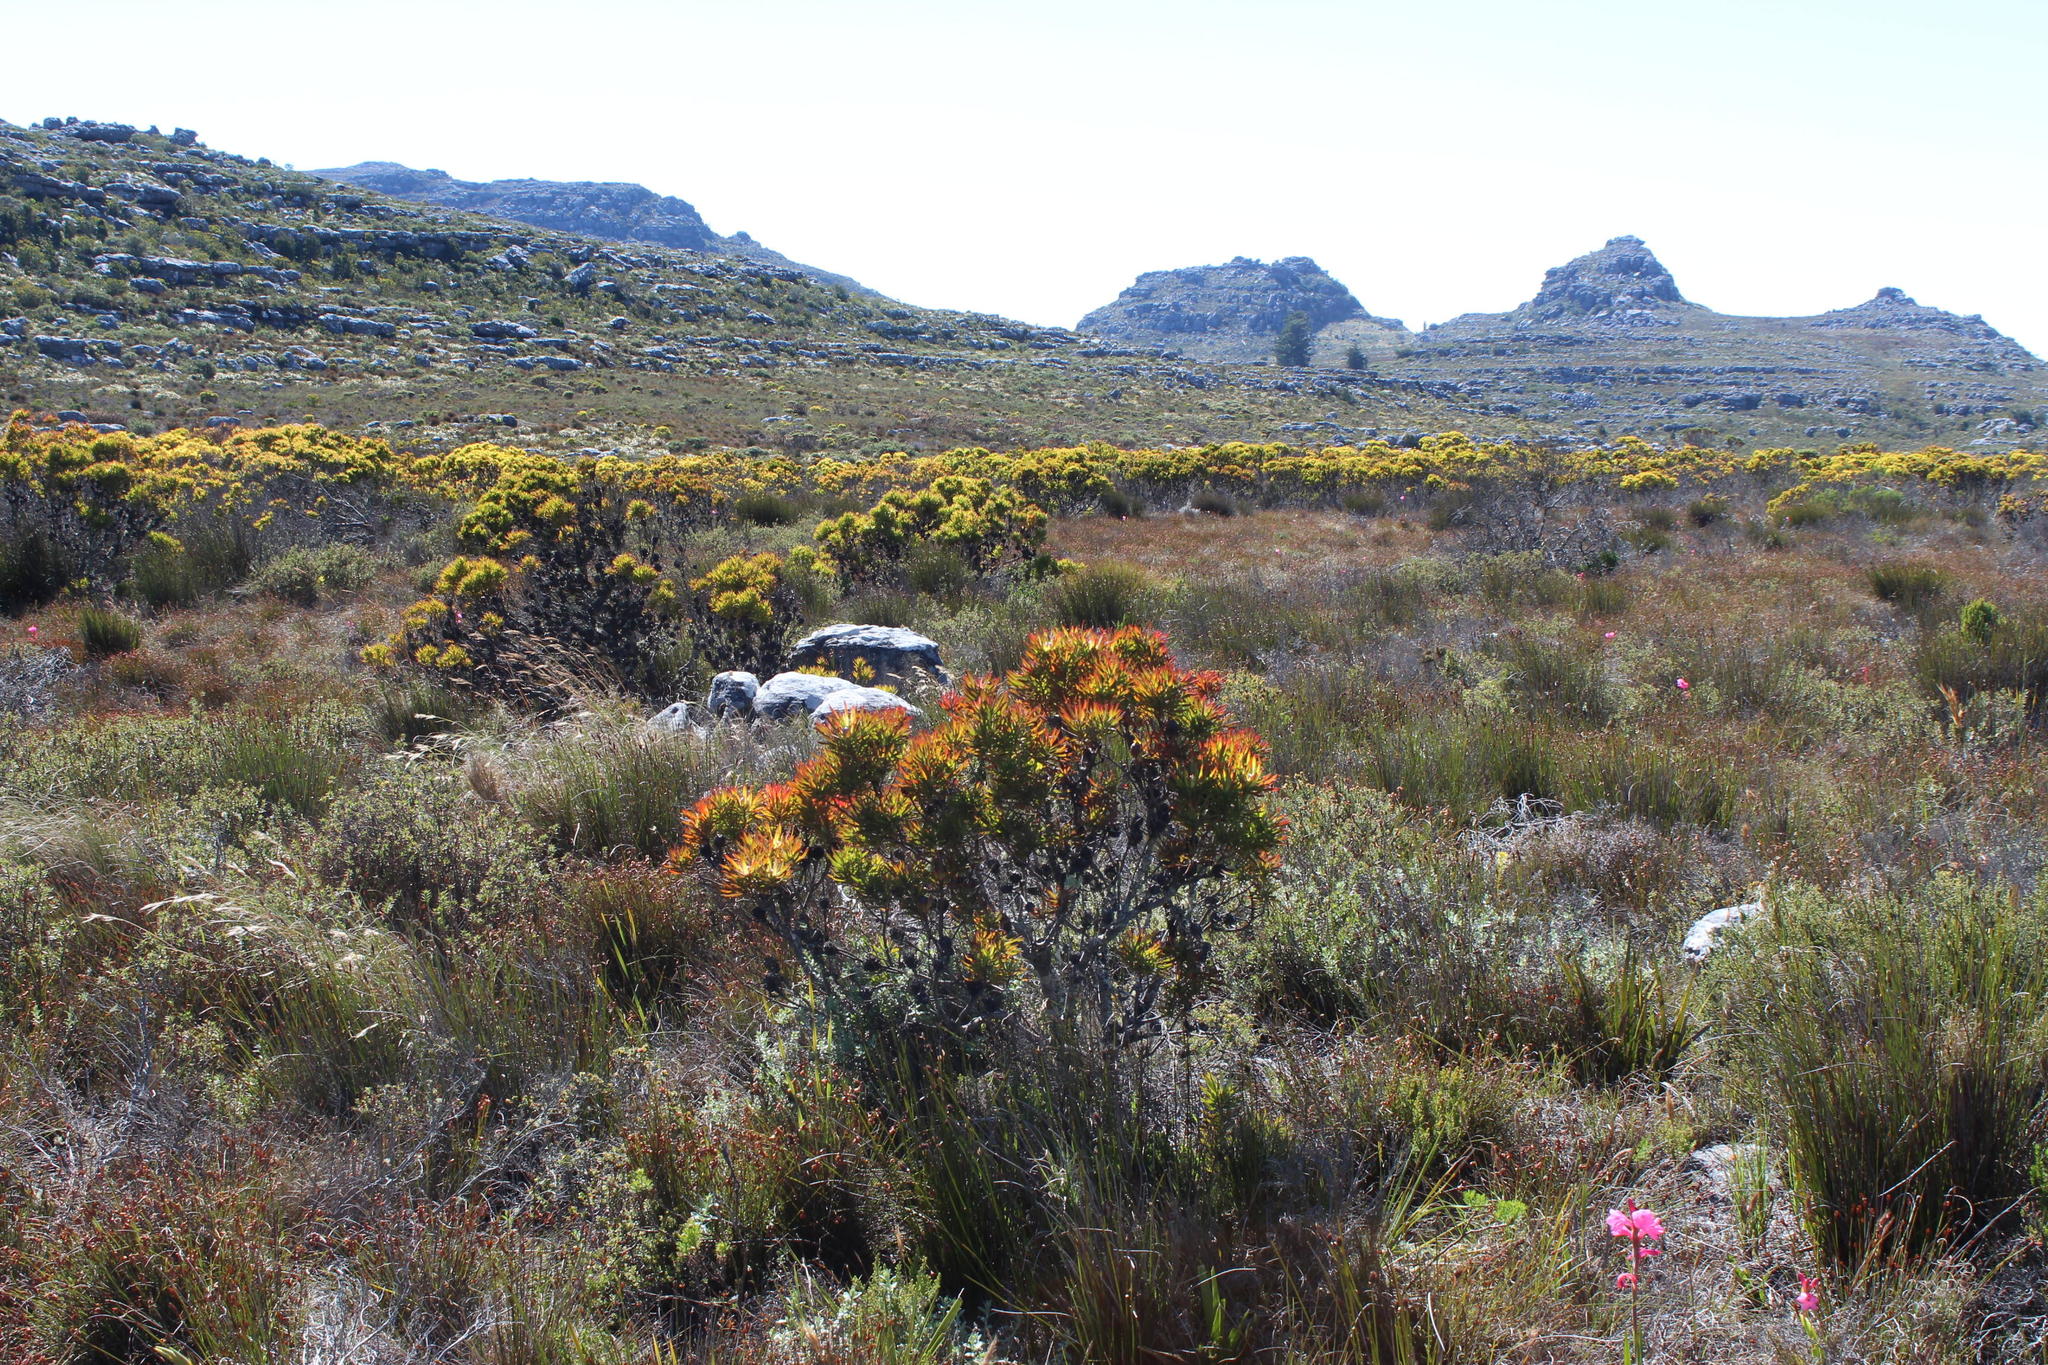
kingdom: Plantae
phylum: Tracheophyta
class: Magnoliopsida
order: Proteales
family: Proteaceae
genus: Leucadendron
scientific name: Leucadendron xanthoconus
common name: Sickle-leaf conebush
